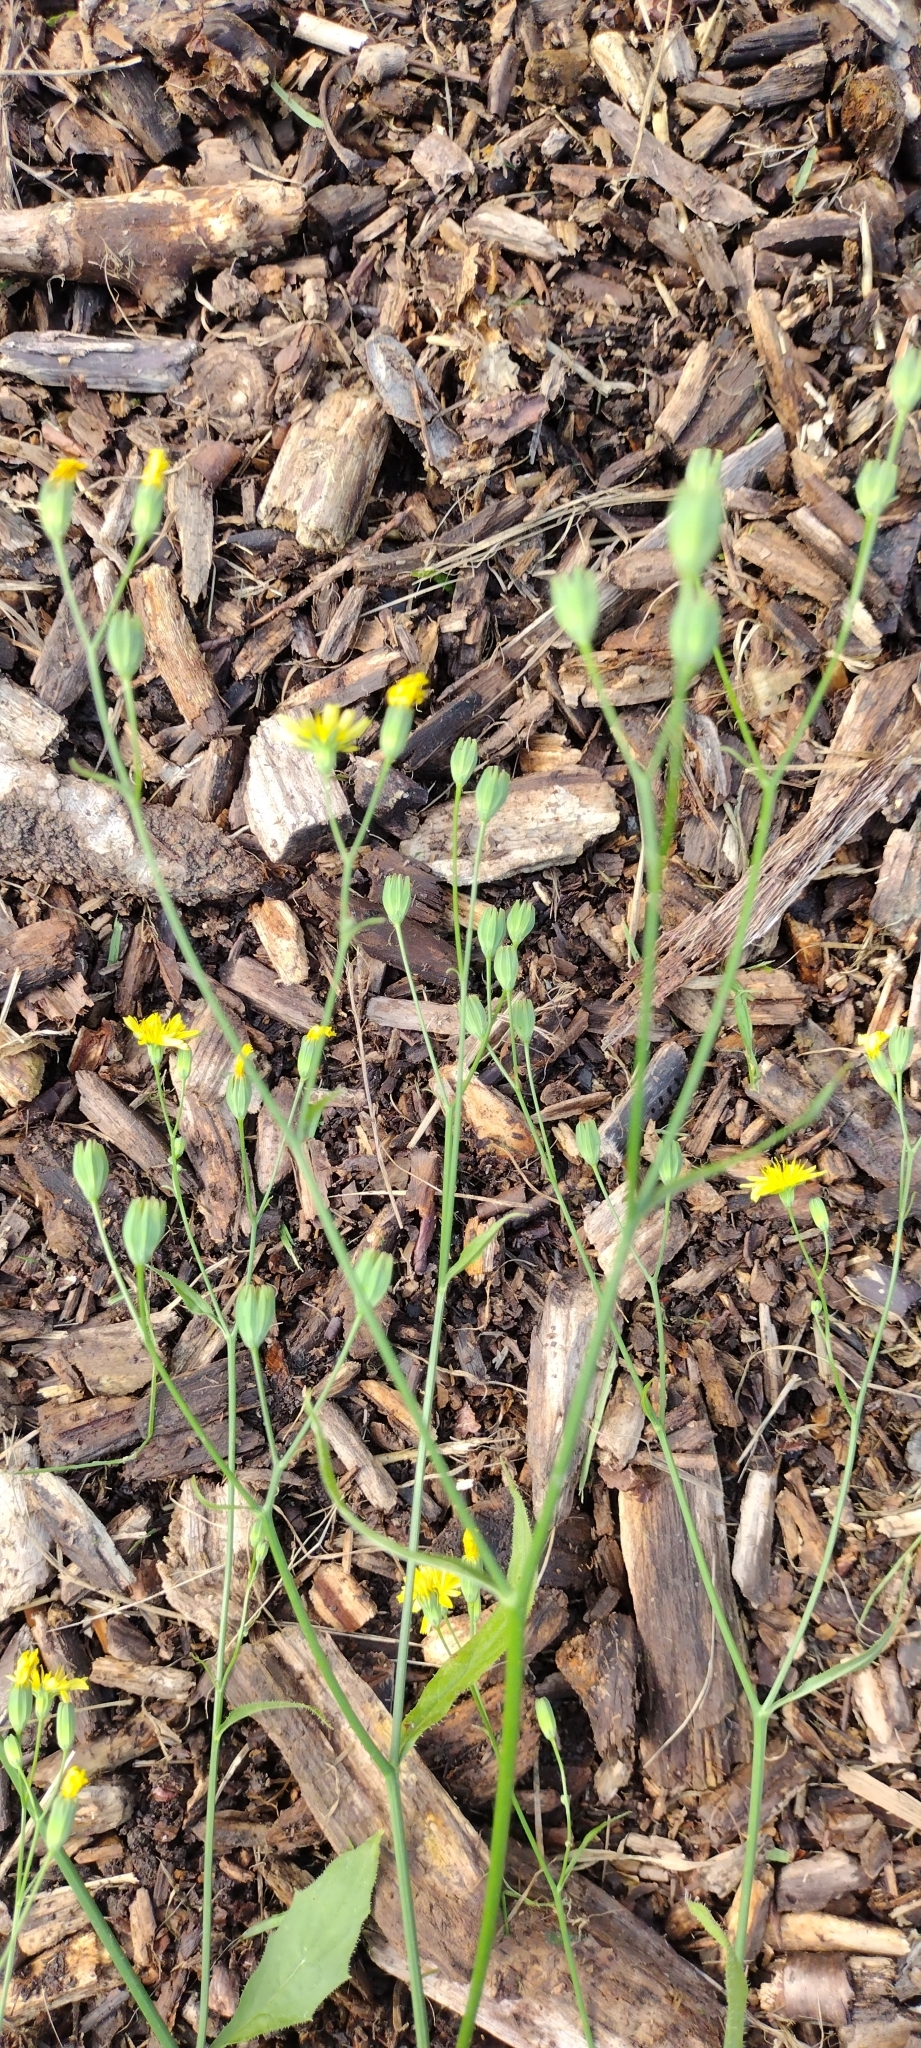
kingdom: Plantae
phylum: Tracheophyta
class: Magnoliopsida
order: Asterales
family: Asteraceae
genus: Lapsana
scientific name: Lapsana communis
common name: Nipplewort
